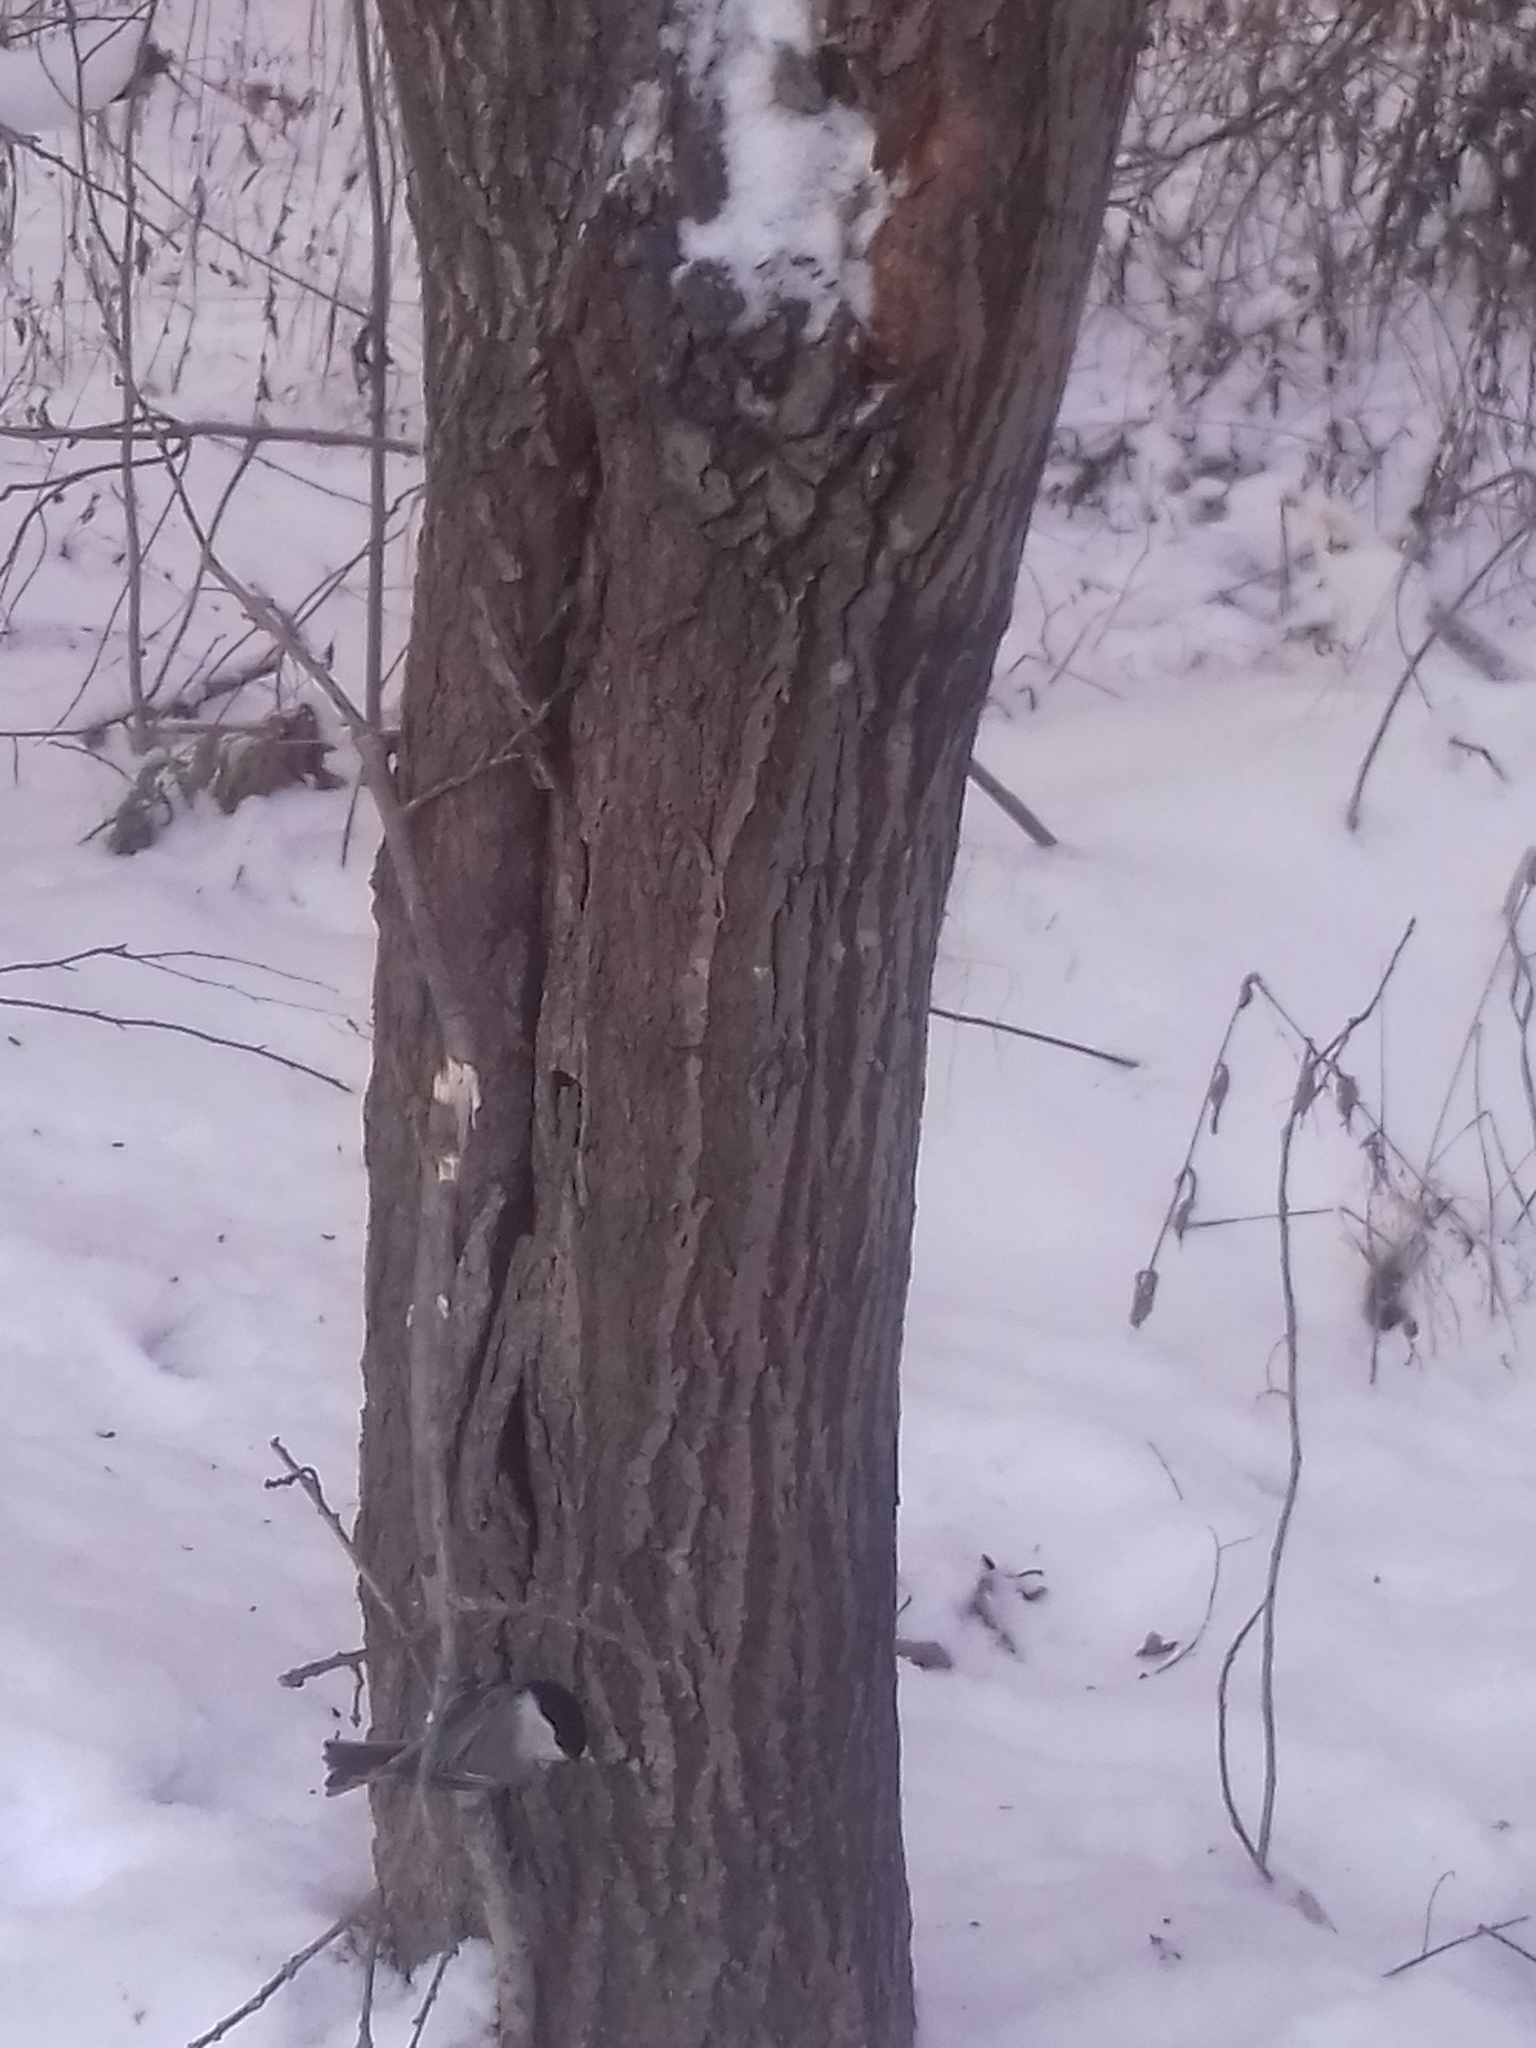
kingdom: Animalia
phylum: Chordata
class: Aves
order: Passeriformes
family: Paridae
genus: Poecile
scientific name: Poecile montanus
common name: Willow tit
